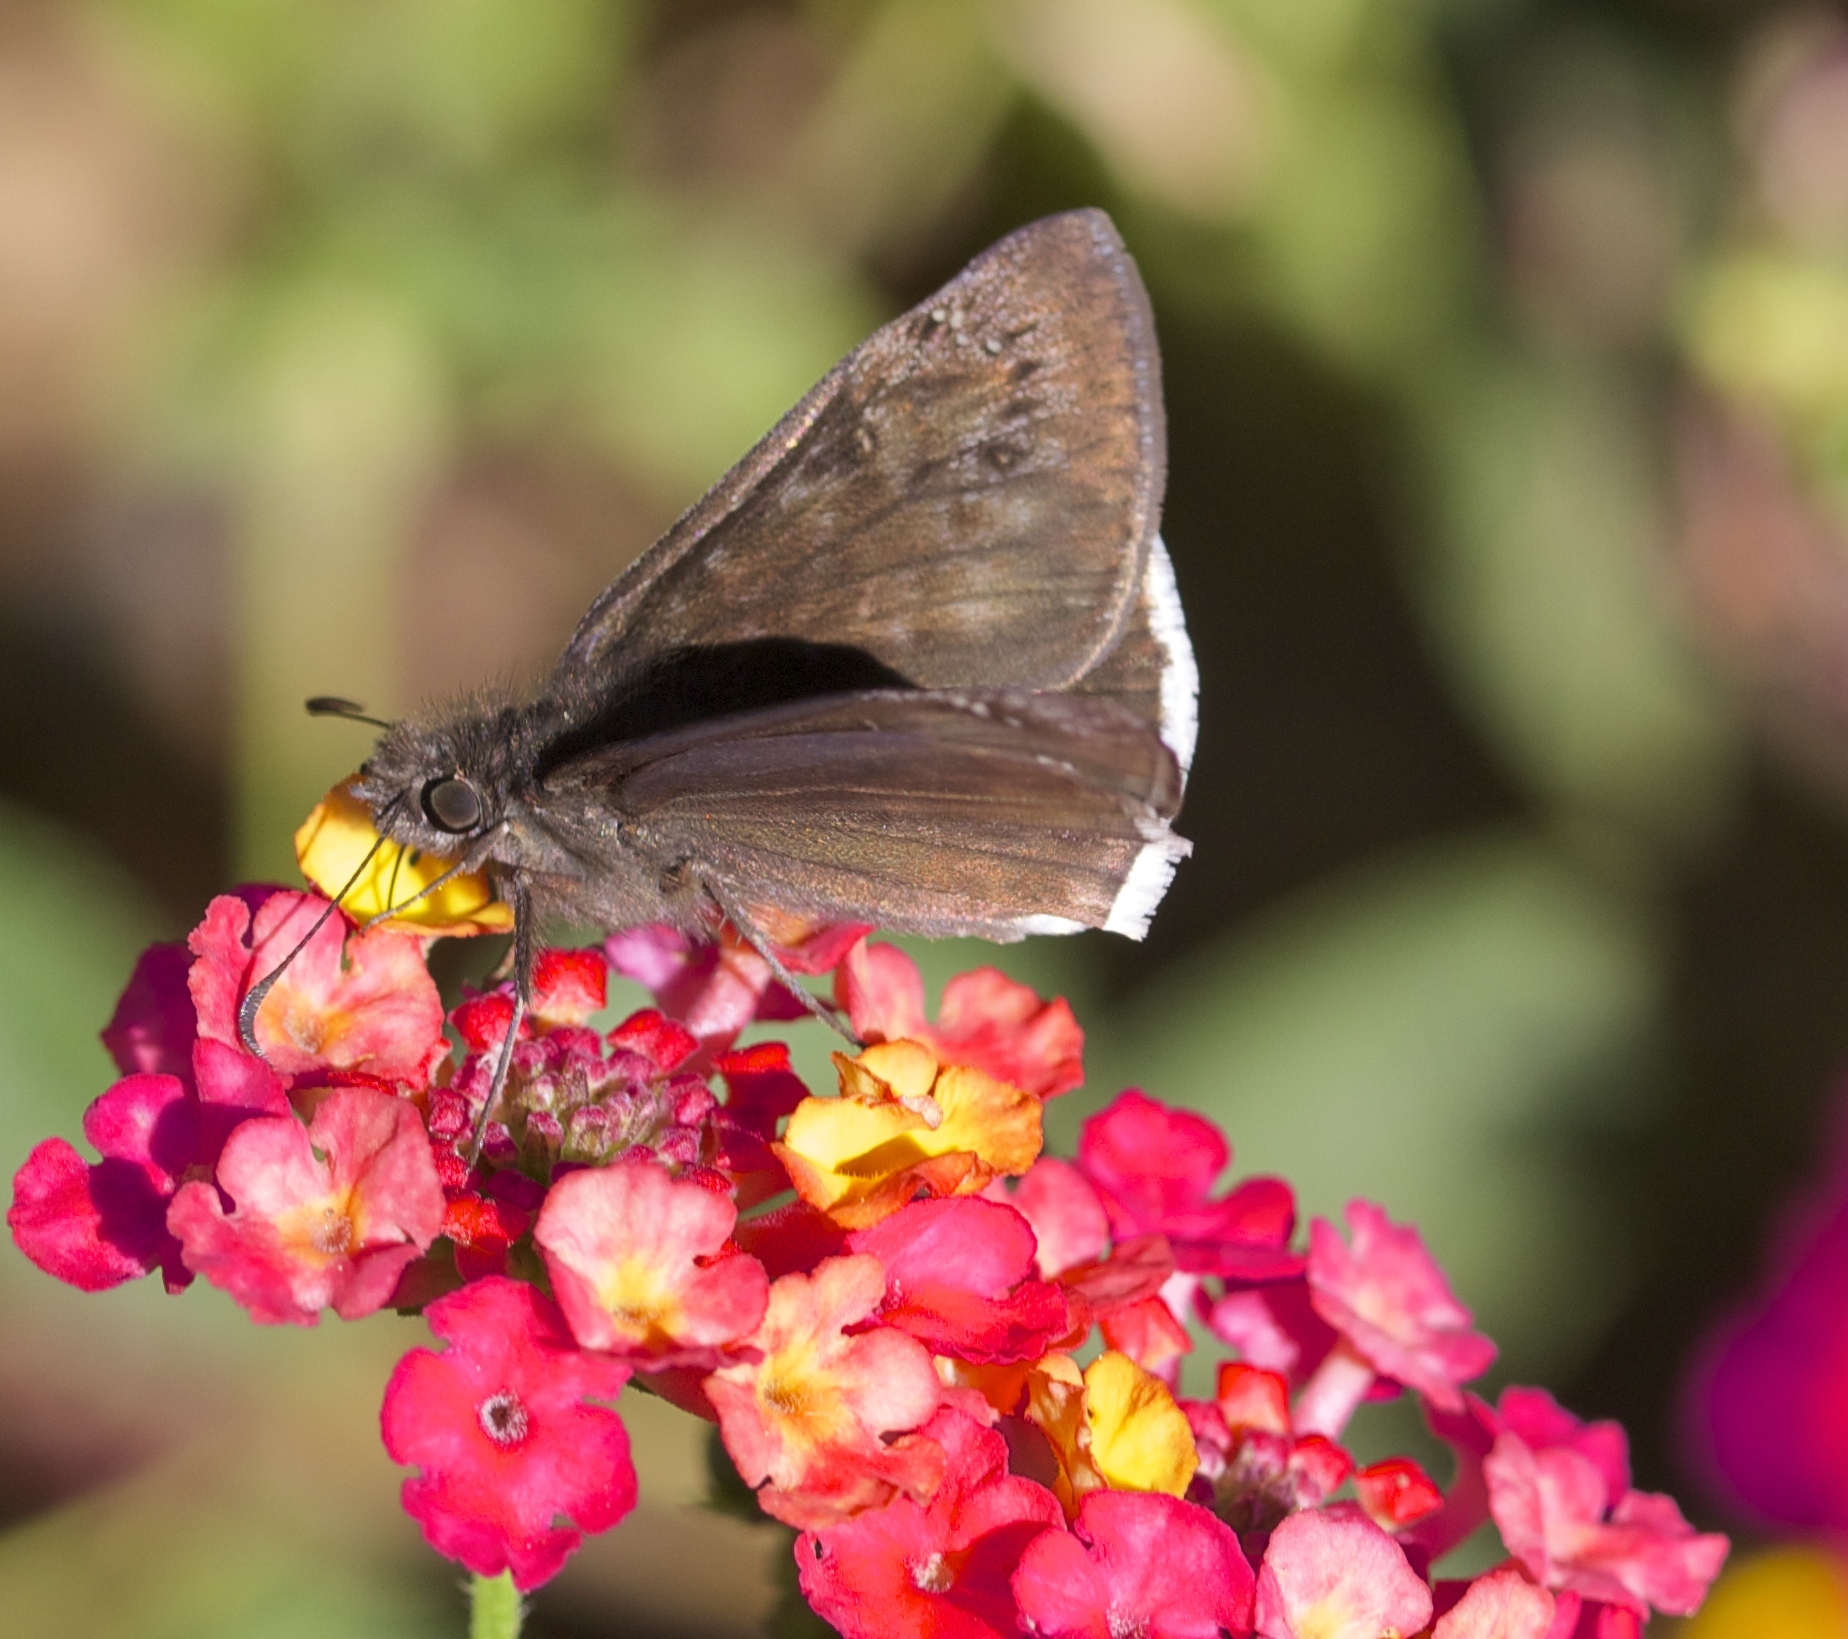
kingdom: Animalia
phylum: Arthropoda
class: Insecta
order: Lepidoptera
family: Hesperiidae
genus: Erynnis
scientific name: Erynnis tristis
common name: Mournful duskywing
